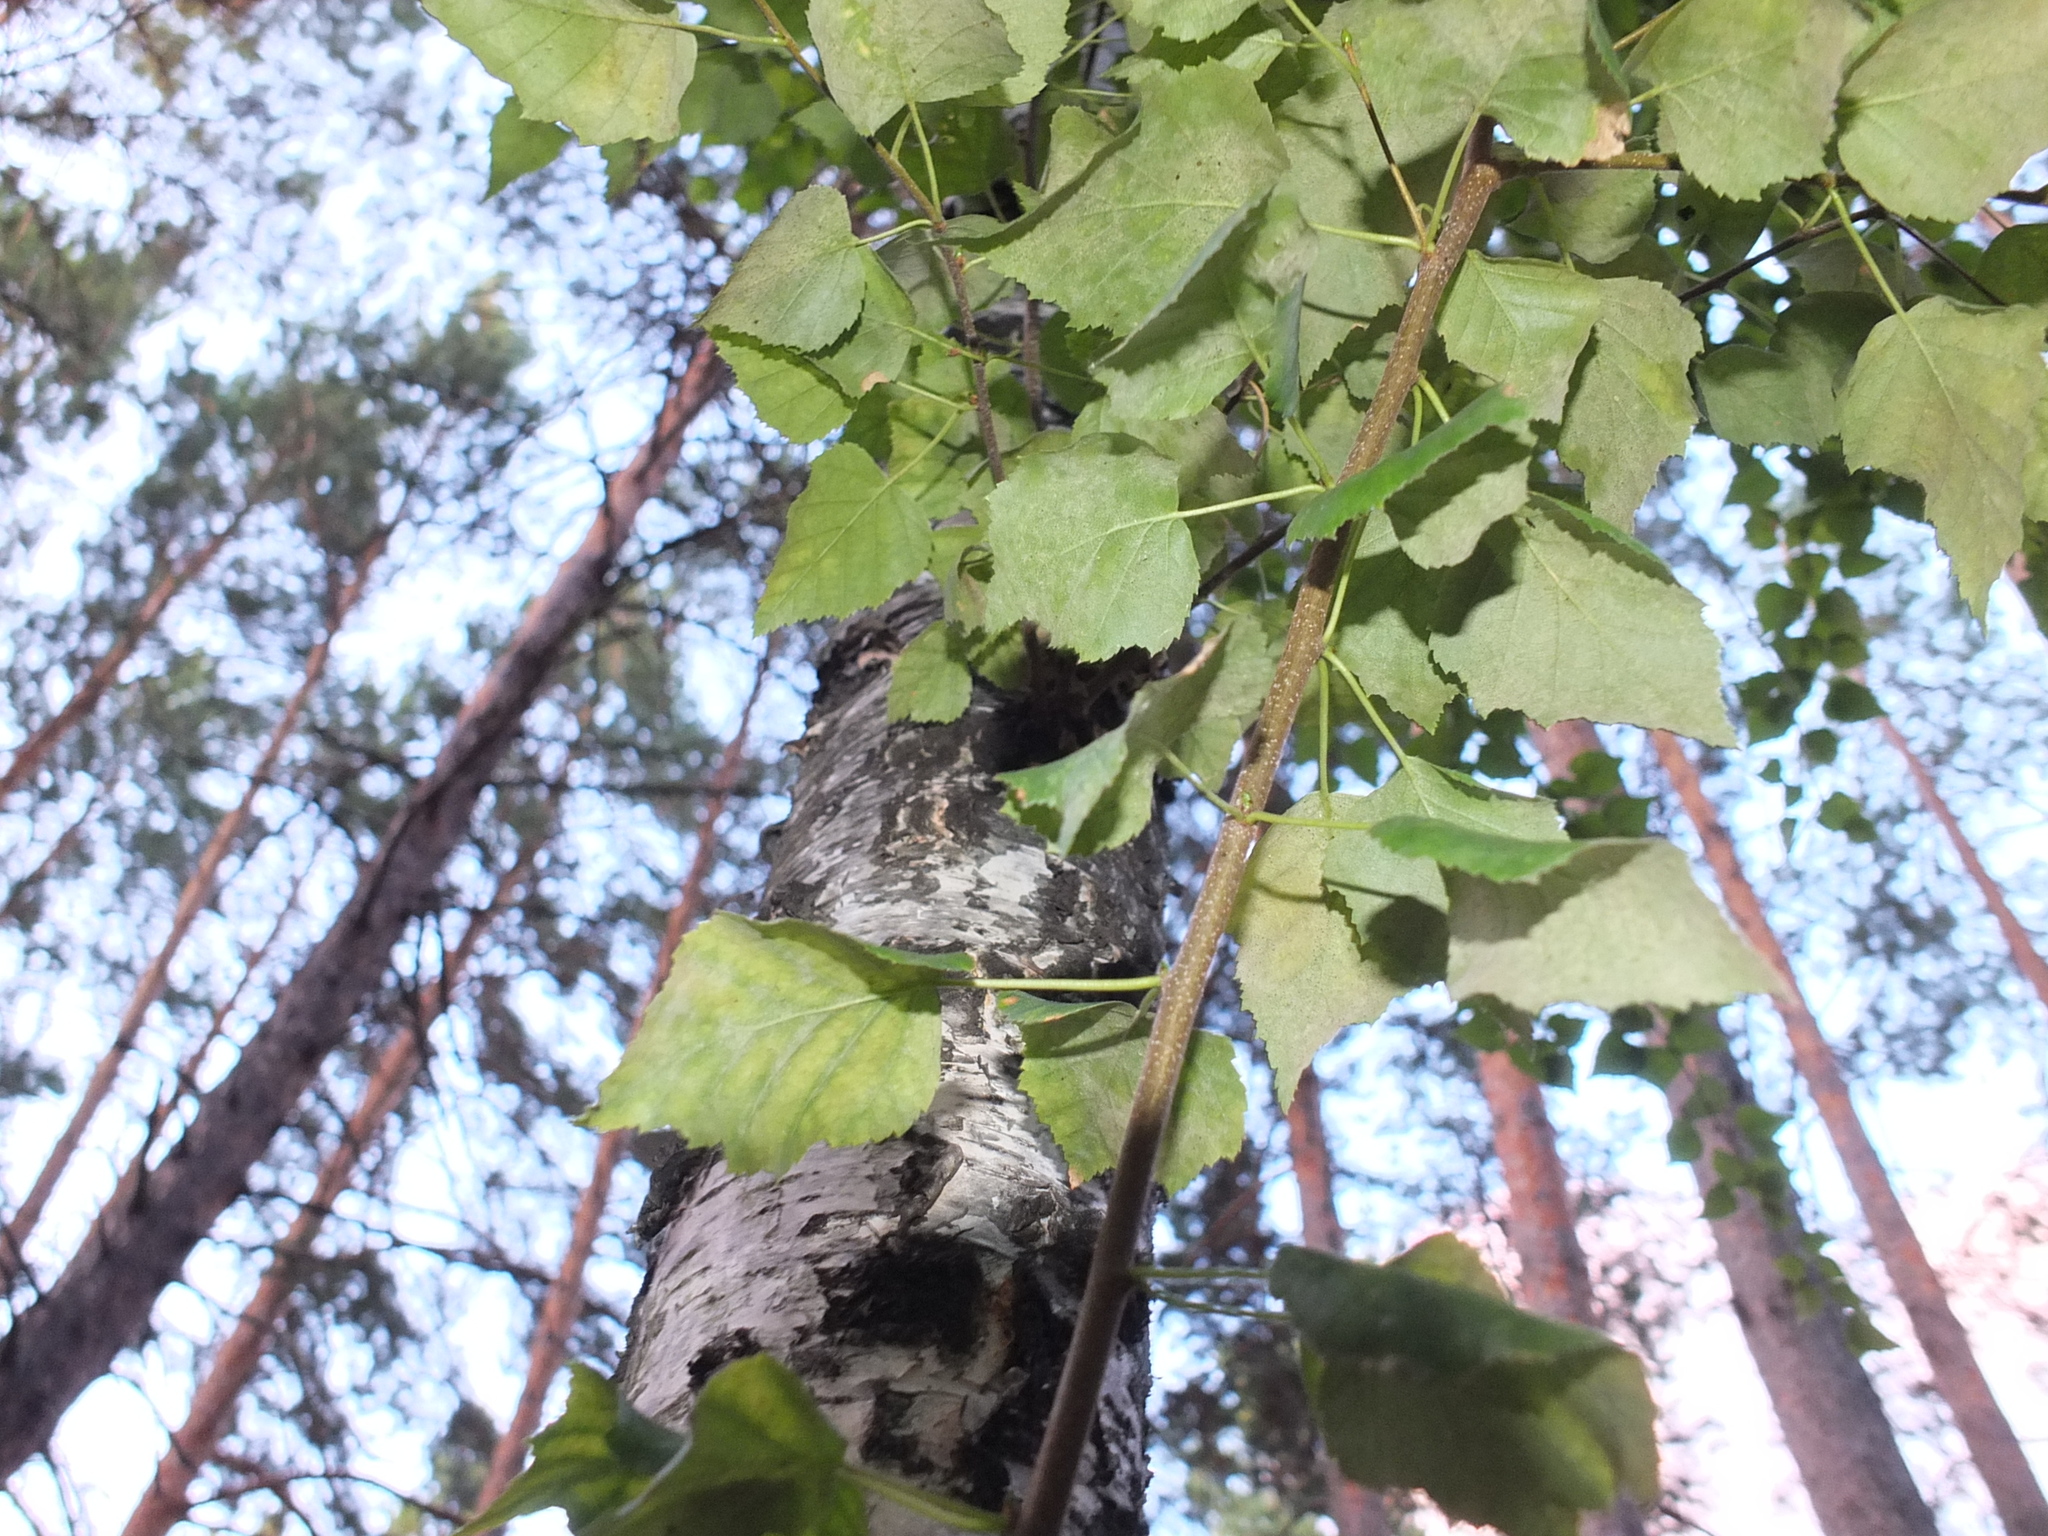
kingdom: Plantae
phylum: Tracheophyta
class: Magnoliopsida
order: Fagales
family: Betulaceae
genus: Betula
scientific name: Betula pendula
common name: Silver birch
